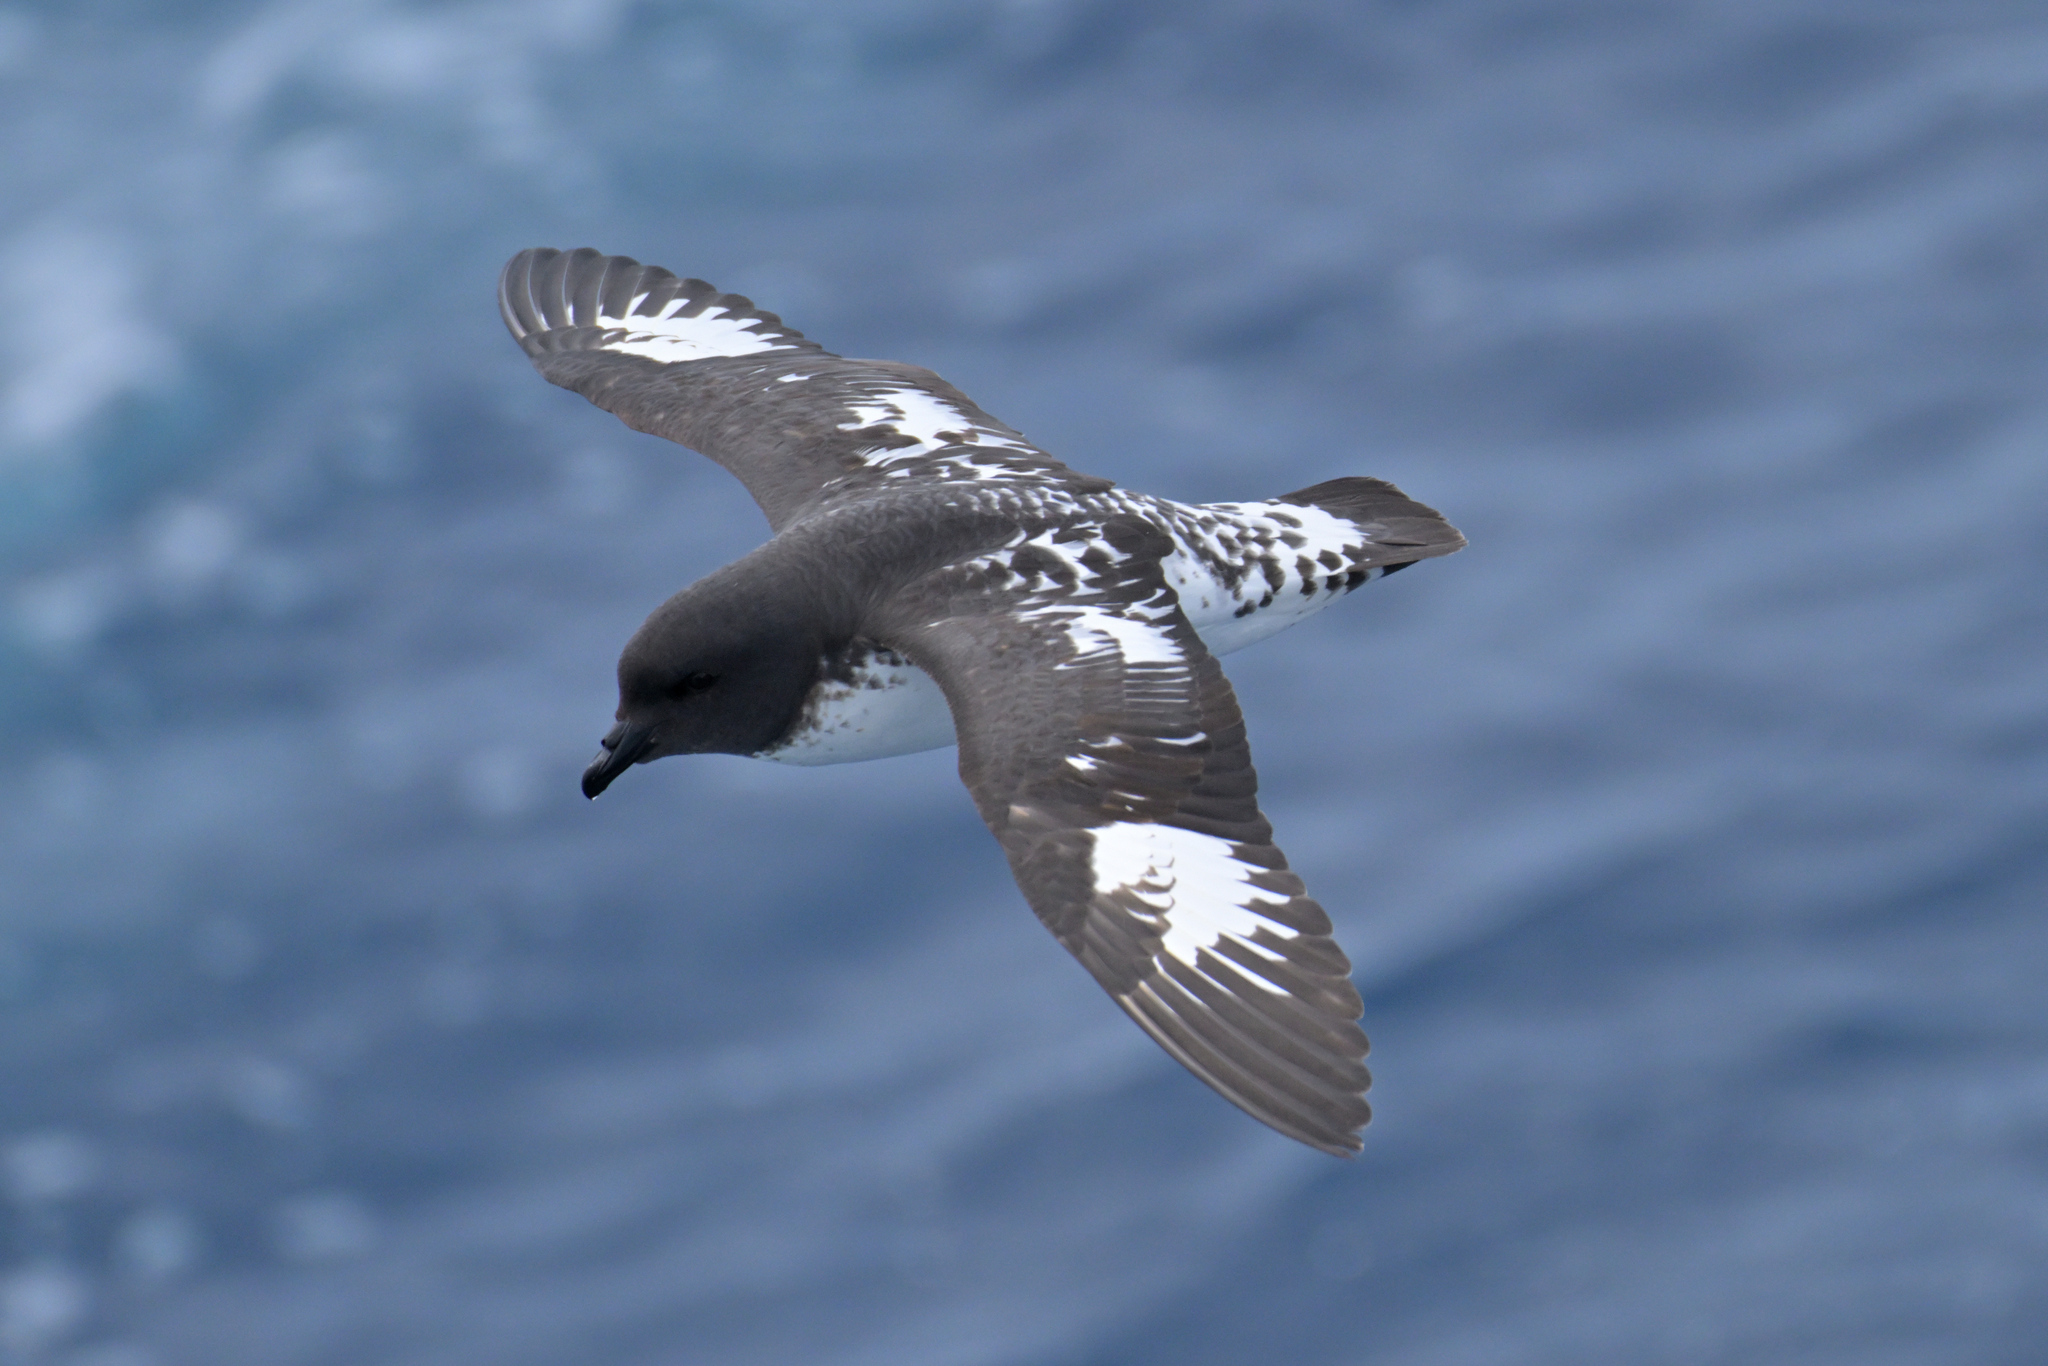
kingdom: Animalia
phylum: Chordata
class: Aves
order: Procellariiformes
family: Procellariidae
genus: Daption
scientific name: Daption capense
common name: Cape petrel
